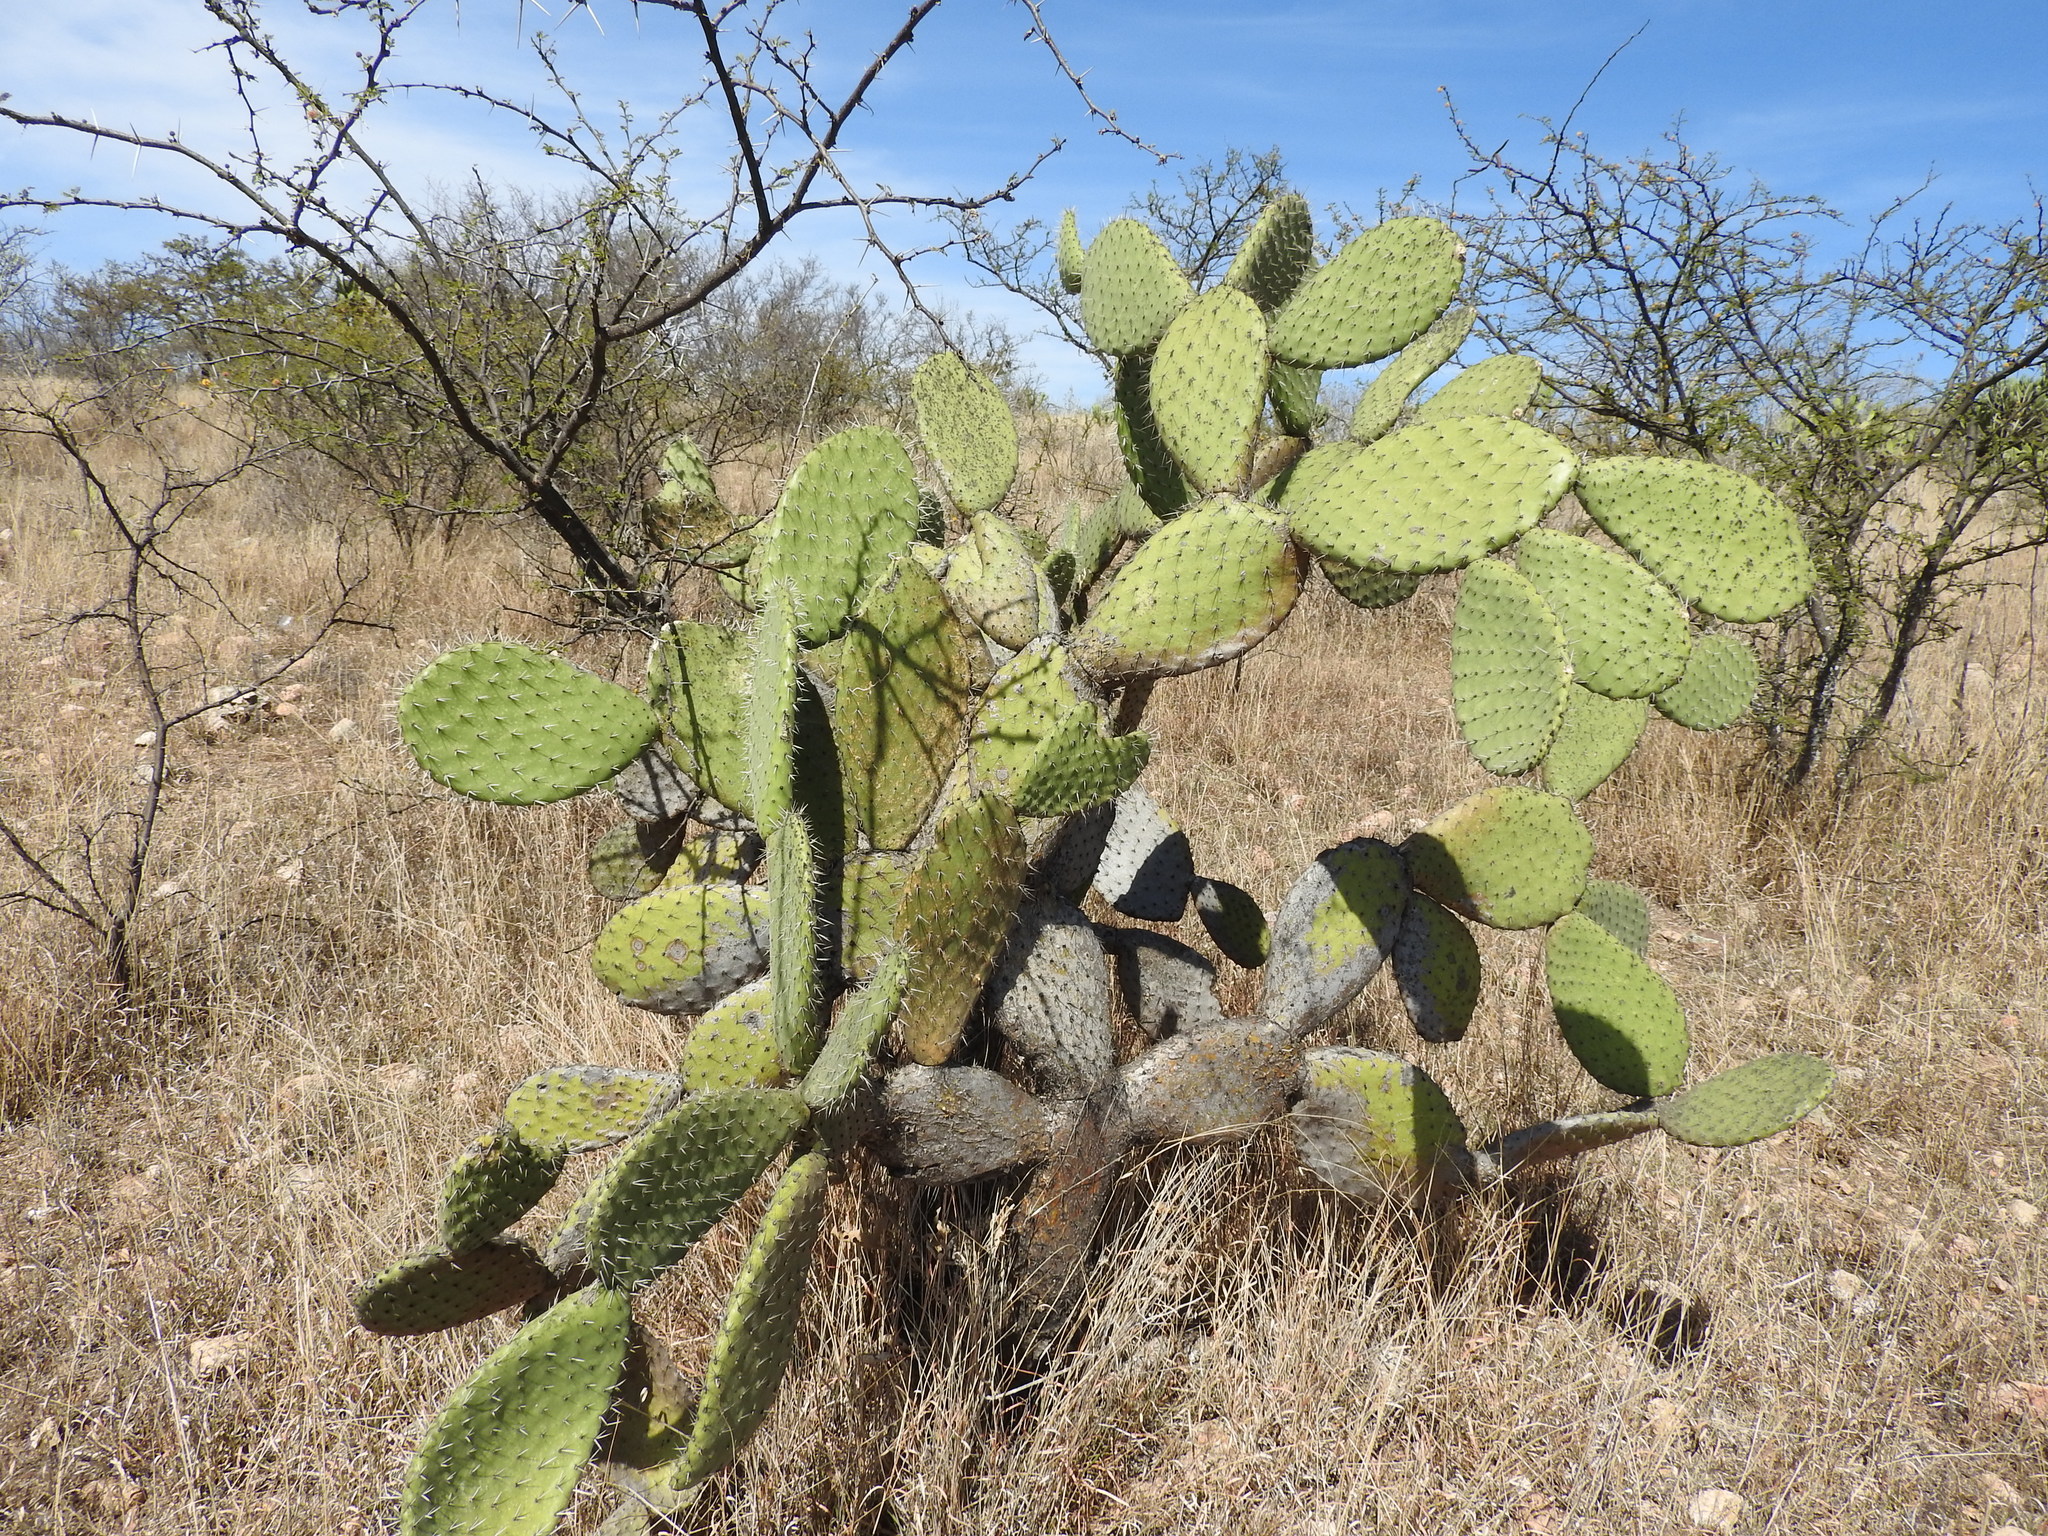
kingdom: Plantae
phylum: Tracheophyta
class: Magnoliopsida
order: Caryophyllales
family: Cactaceae
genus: Opuntia
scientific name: Opuntia hyptiacantha
